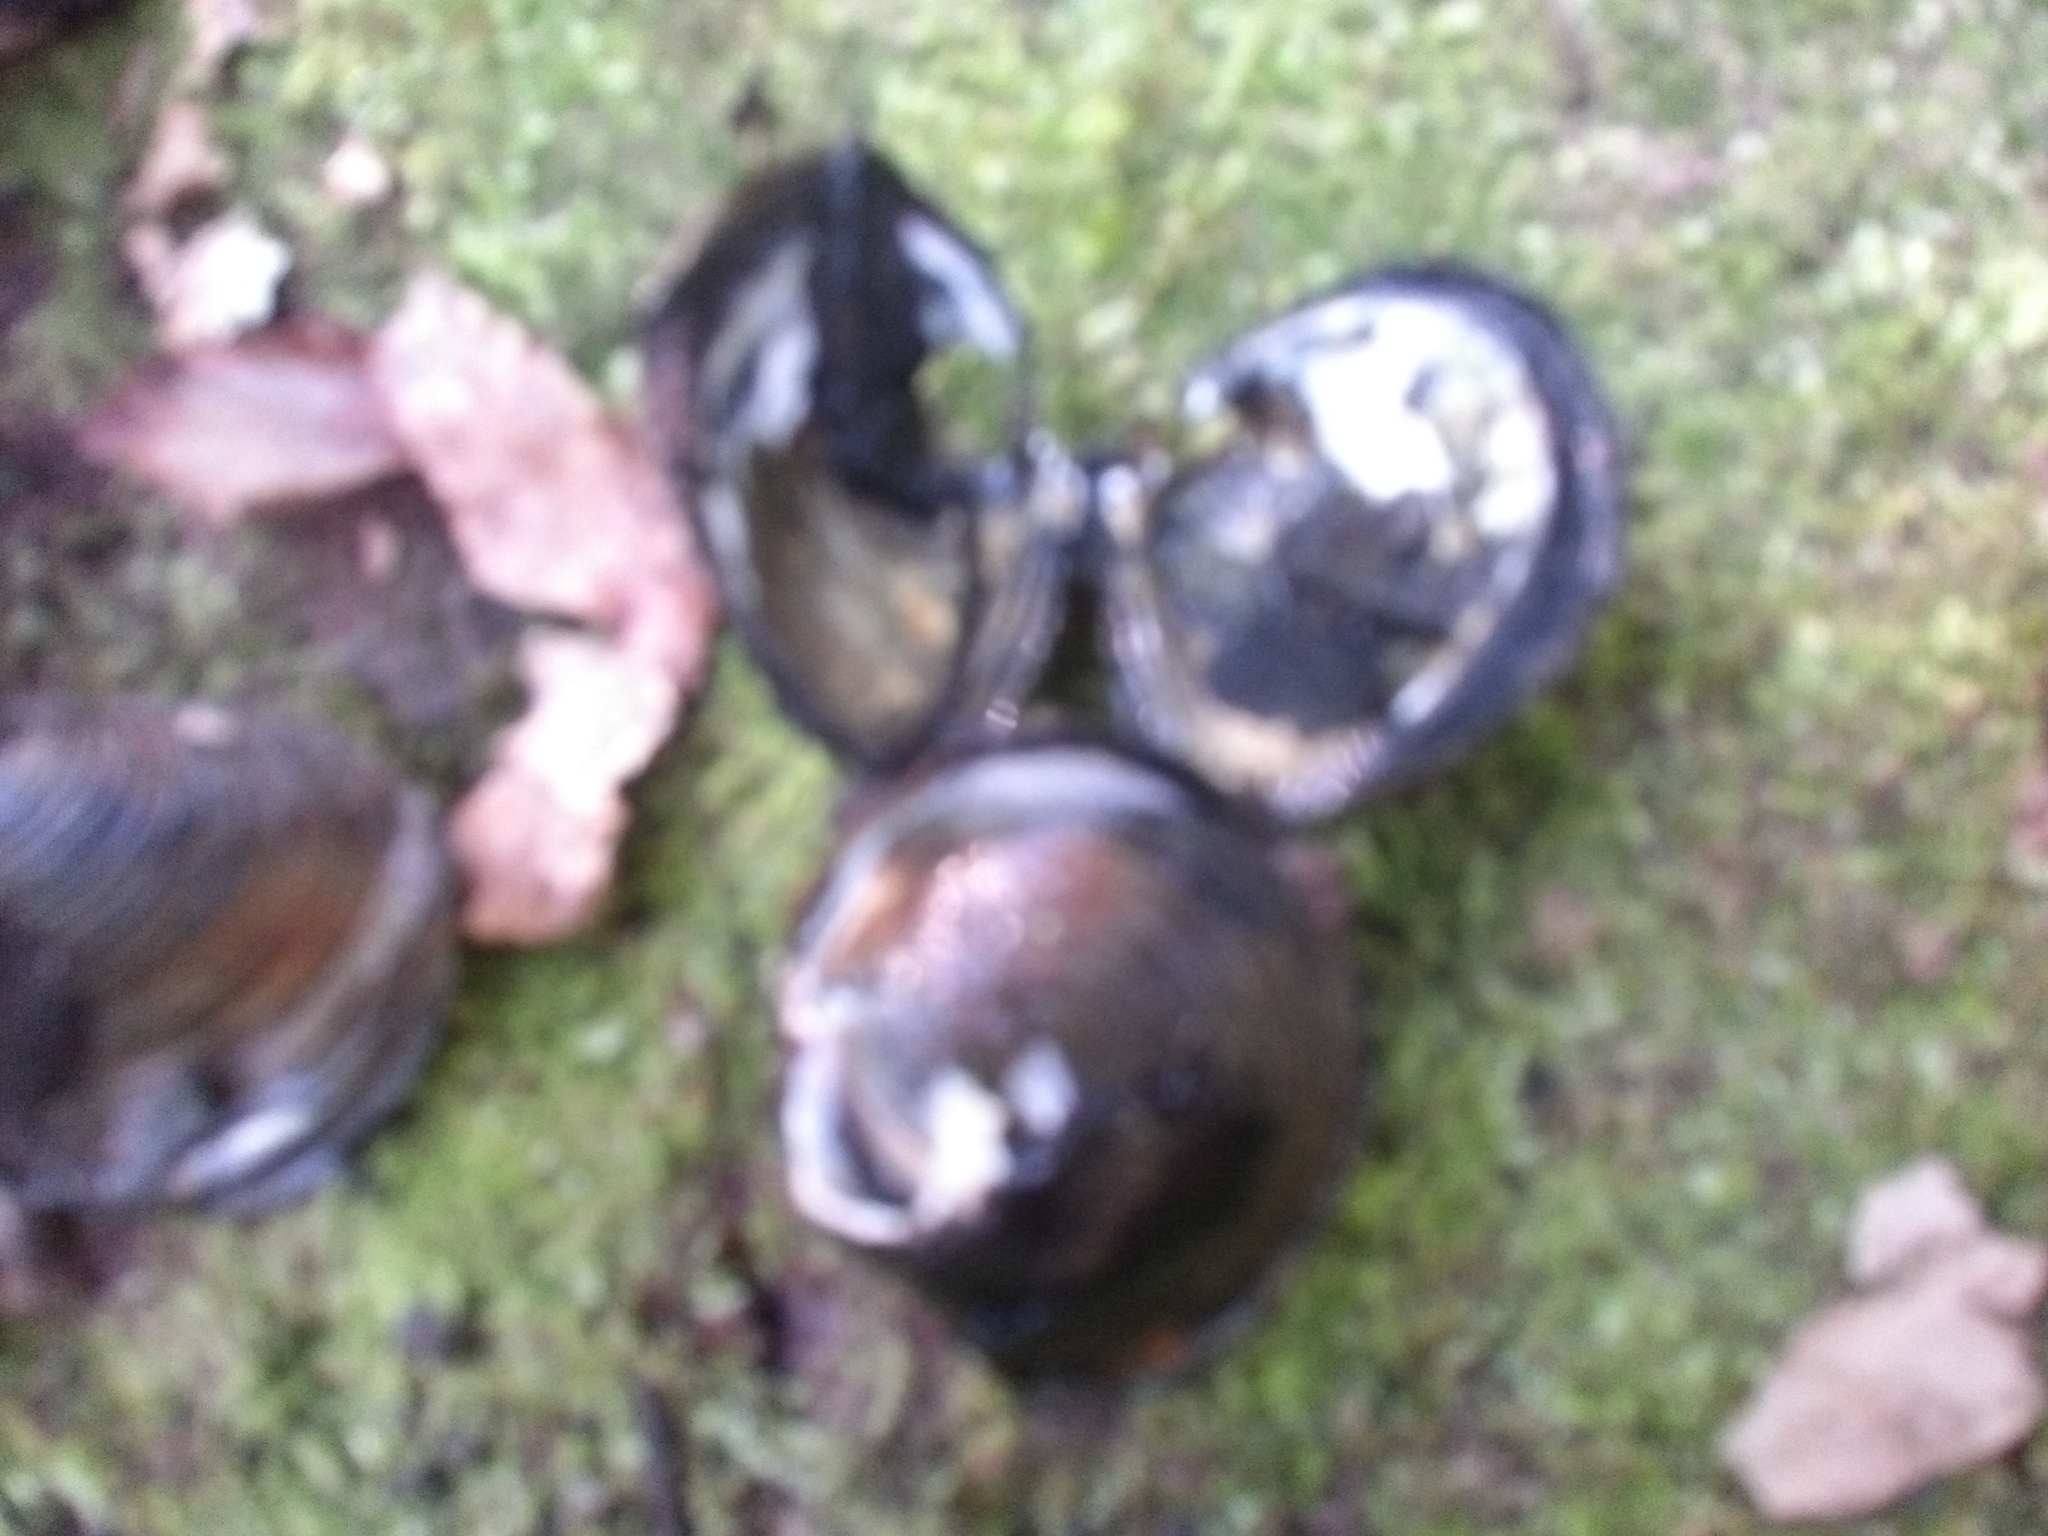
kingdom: Animalia
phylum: Mollusca
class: Bivalvia
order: Venerida
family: Cyrenidae
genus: Corbicula
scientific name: Corbicula fluminea
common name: Asian clam
